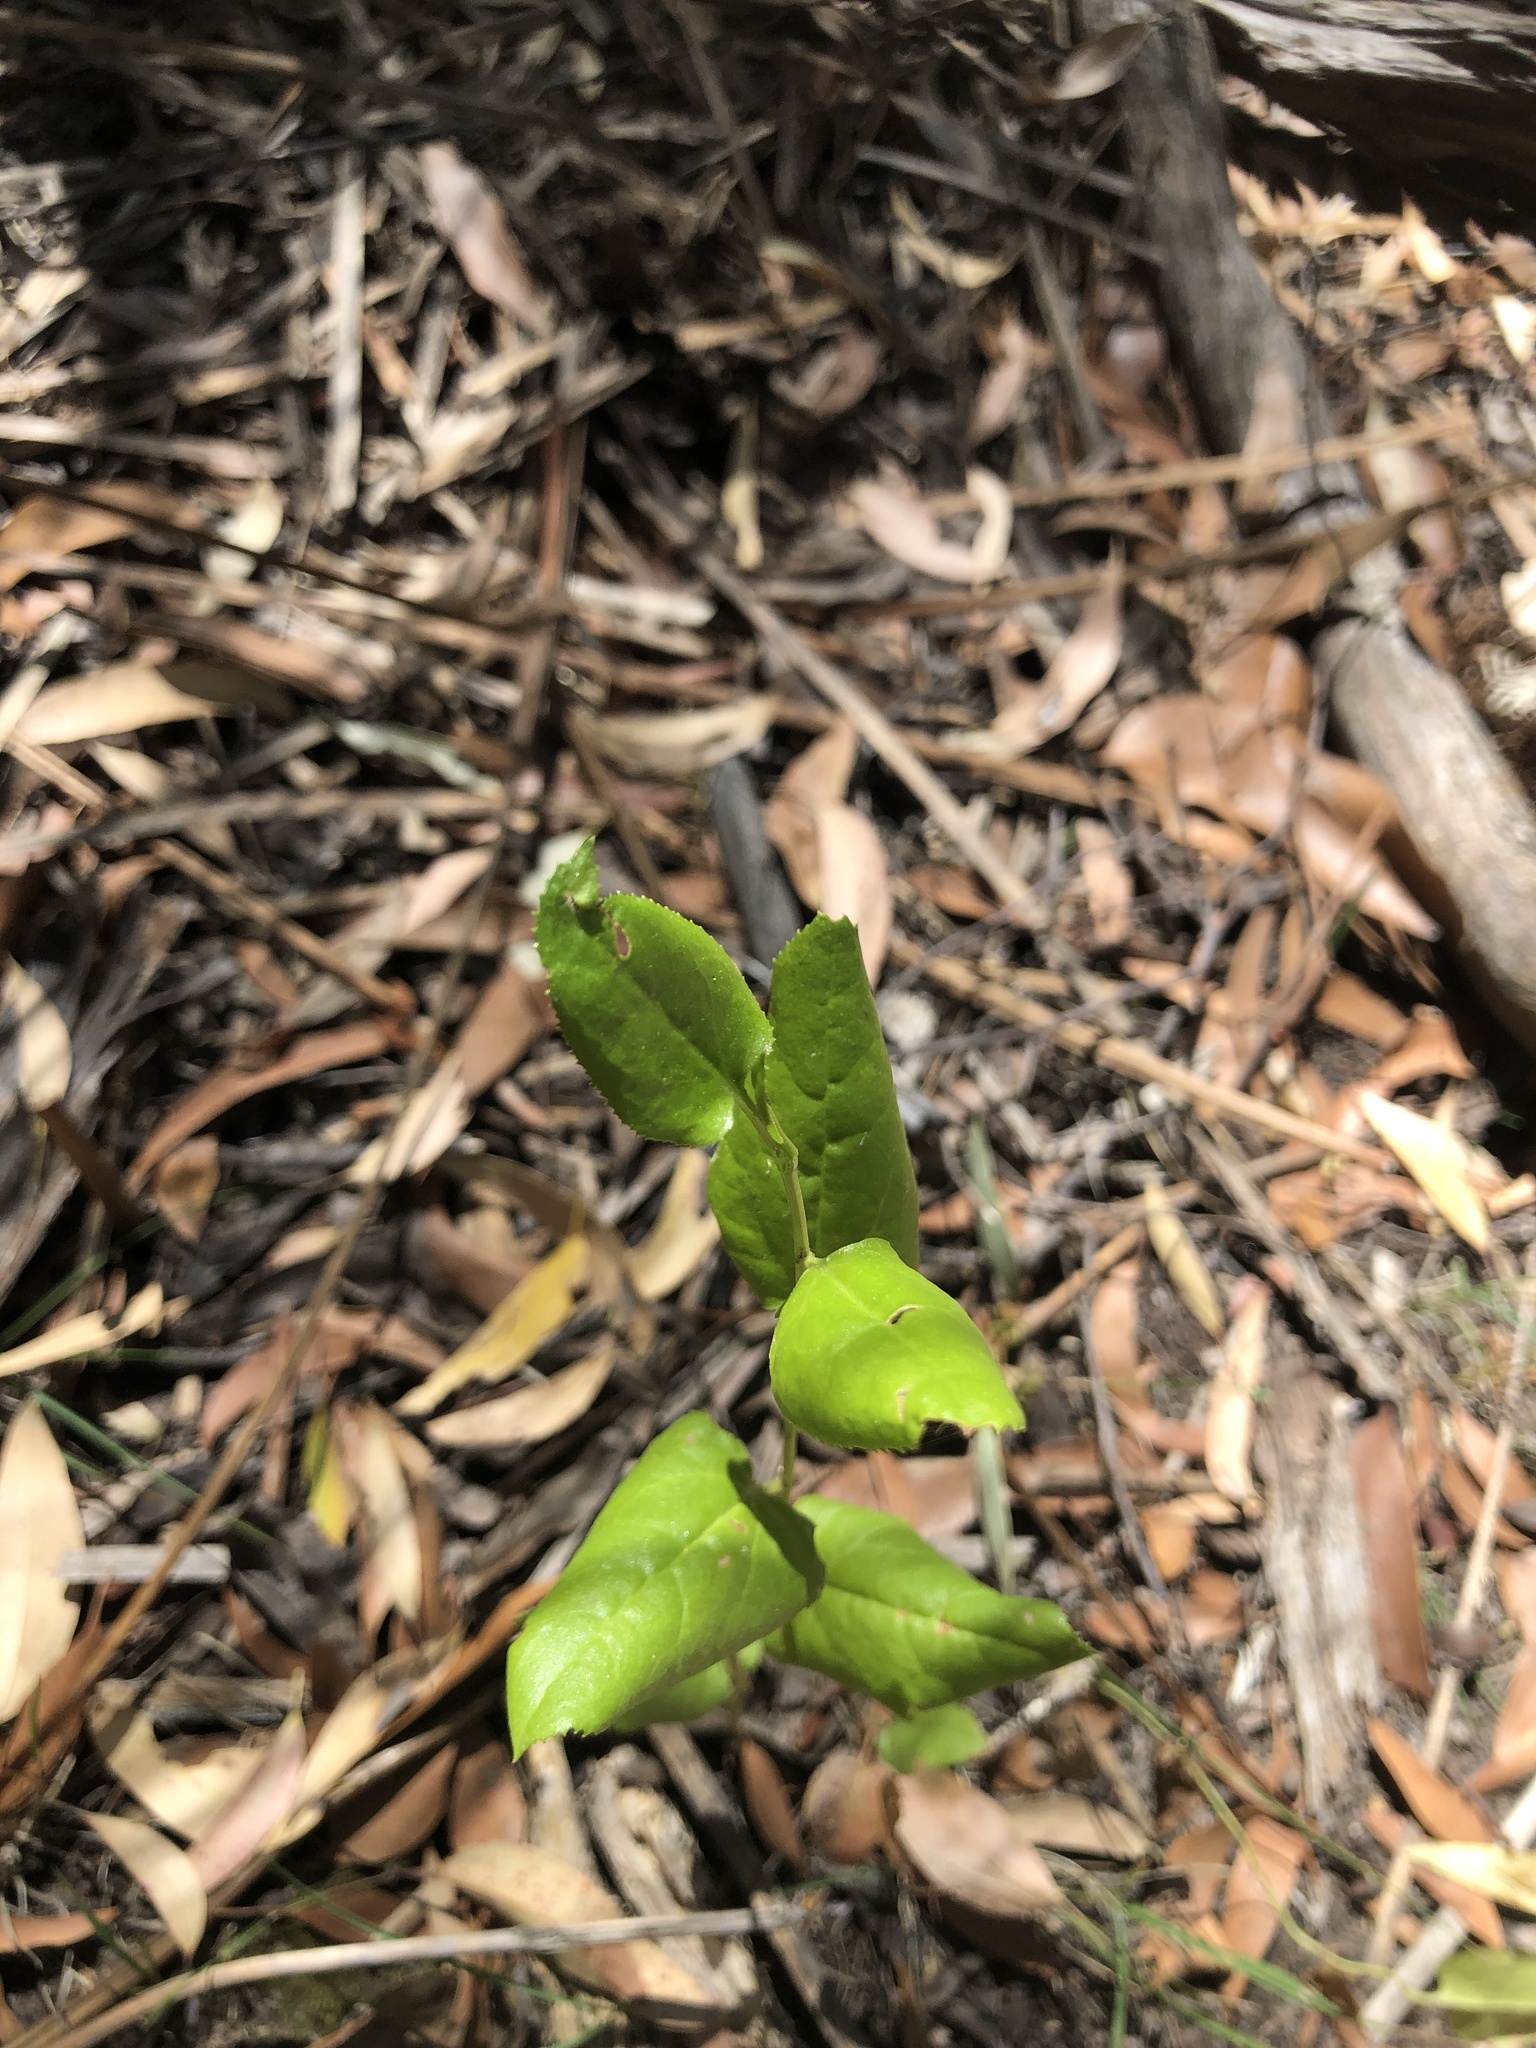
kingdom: Plantae
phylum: Tracheophyta
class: Magnoliopsida
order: Asterales
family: Goodeniaceae
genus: Goodenia
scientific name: Goodenia ovata
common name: Hop goodenia
